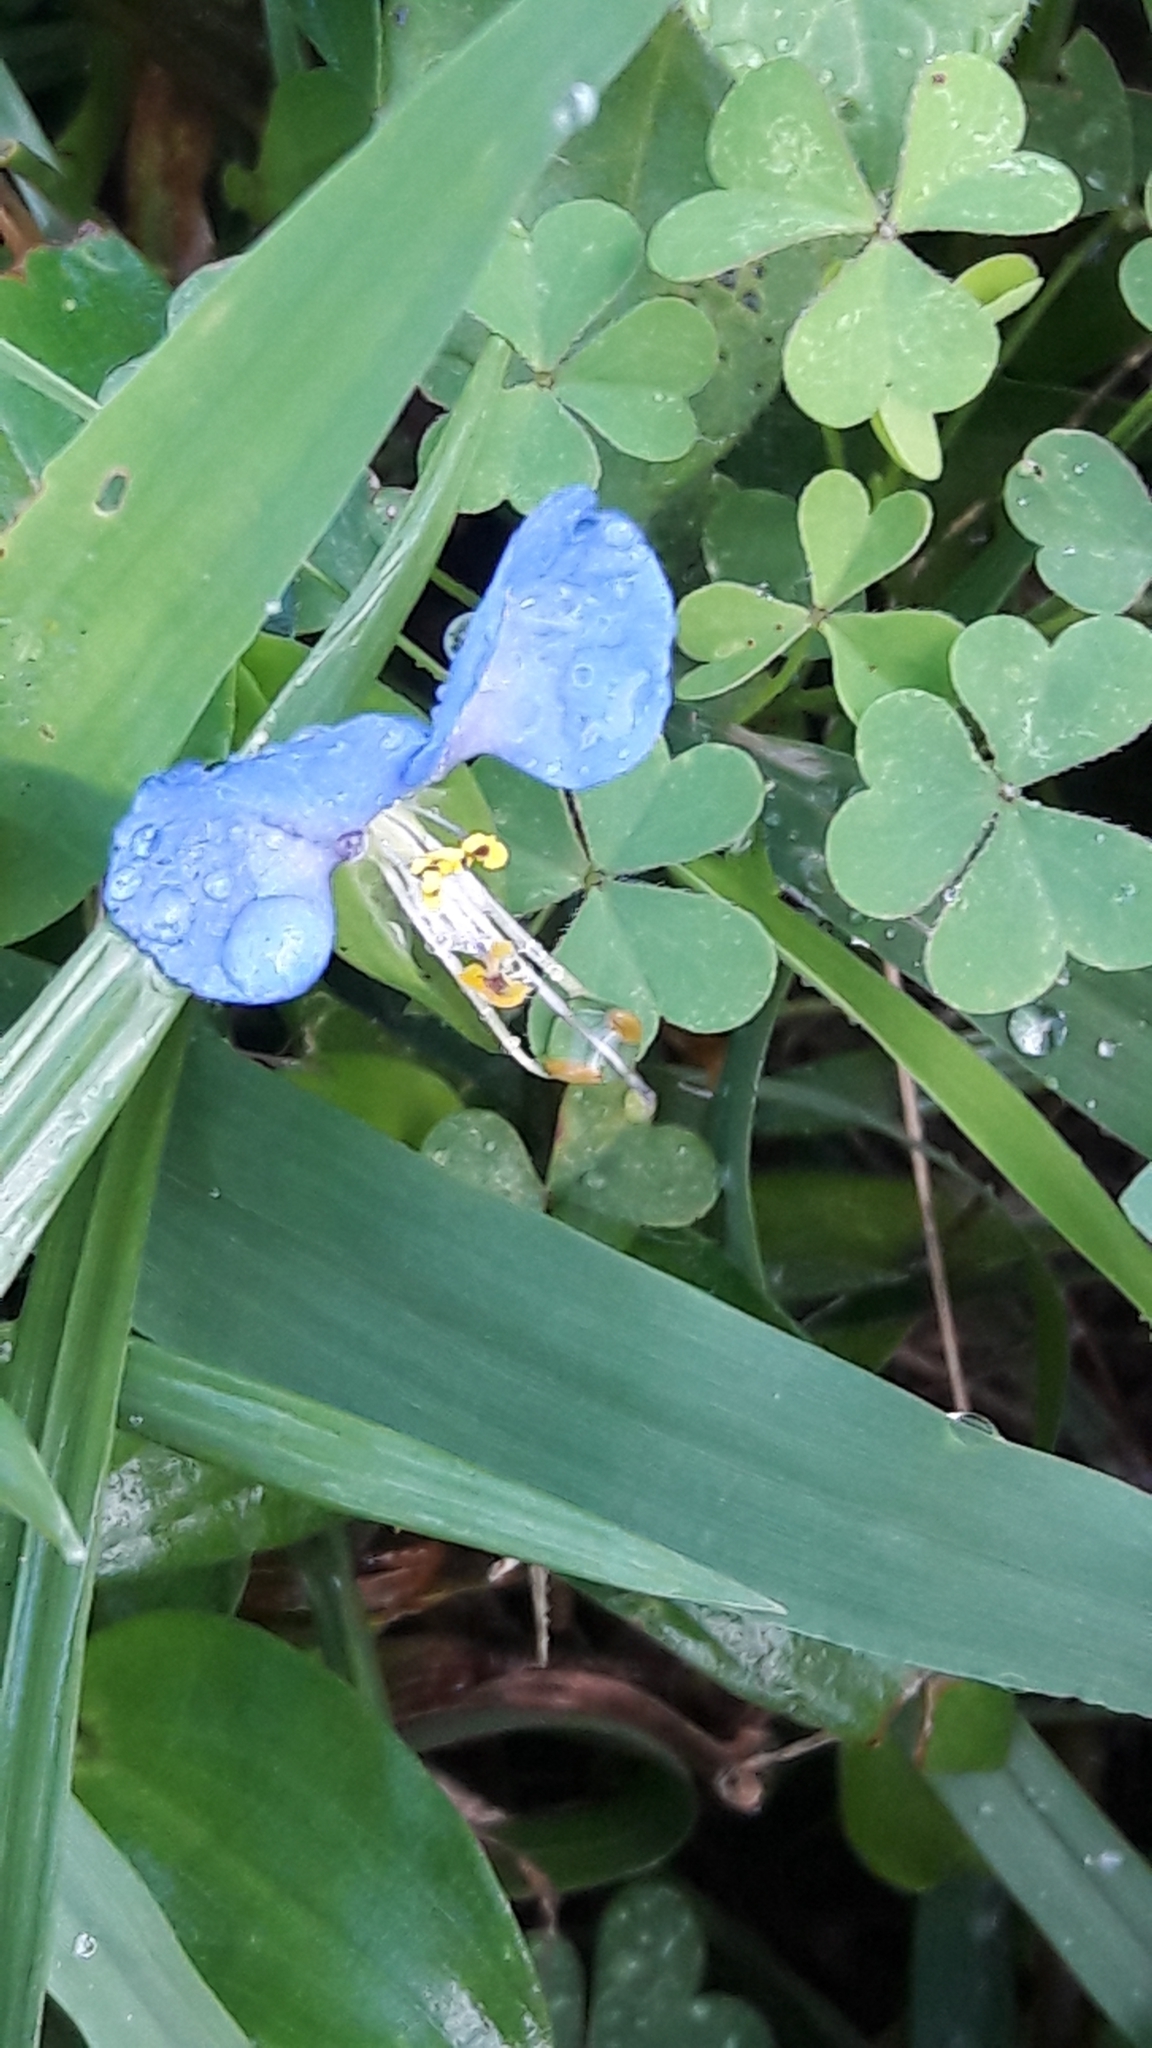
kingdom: Plantae
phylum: Tracheophyta
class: Liliopsida
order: Commelinales
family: Commelinaceae
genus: Commelina
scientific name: Commelina communis
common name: Asiatic dayflower
